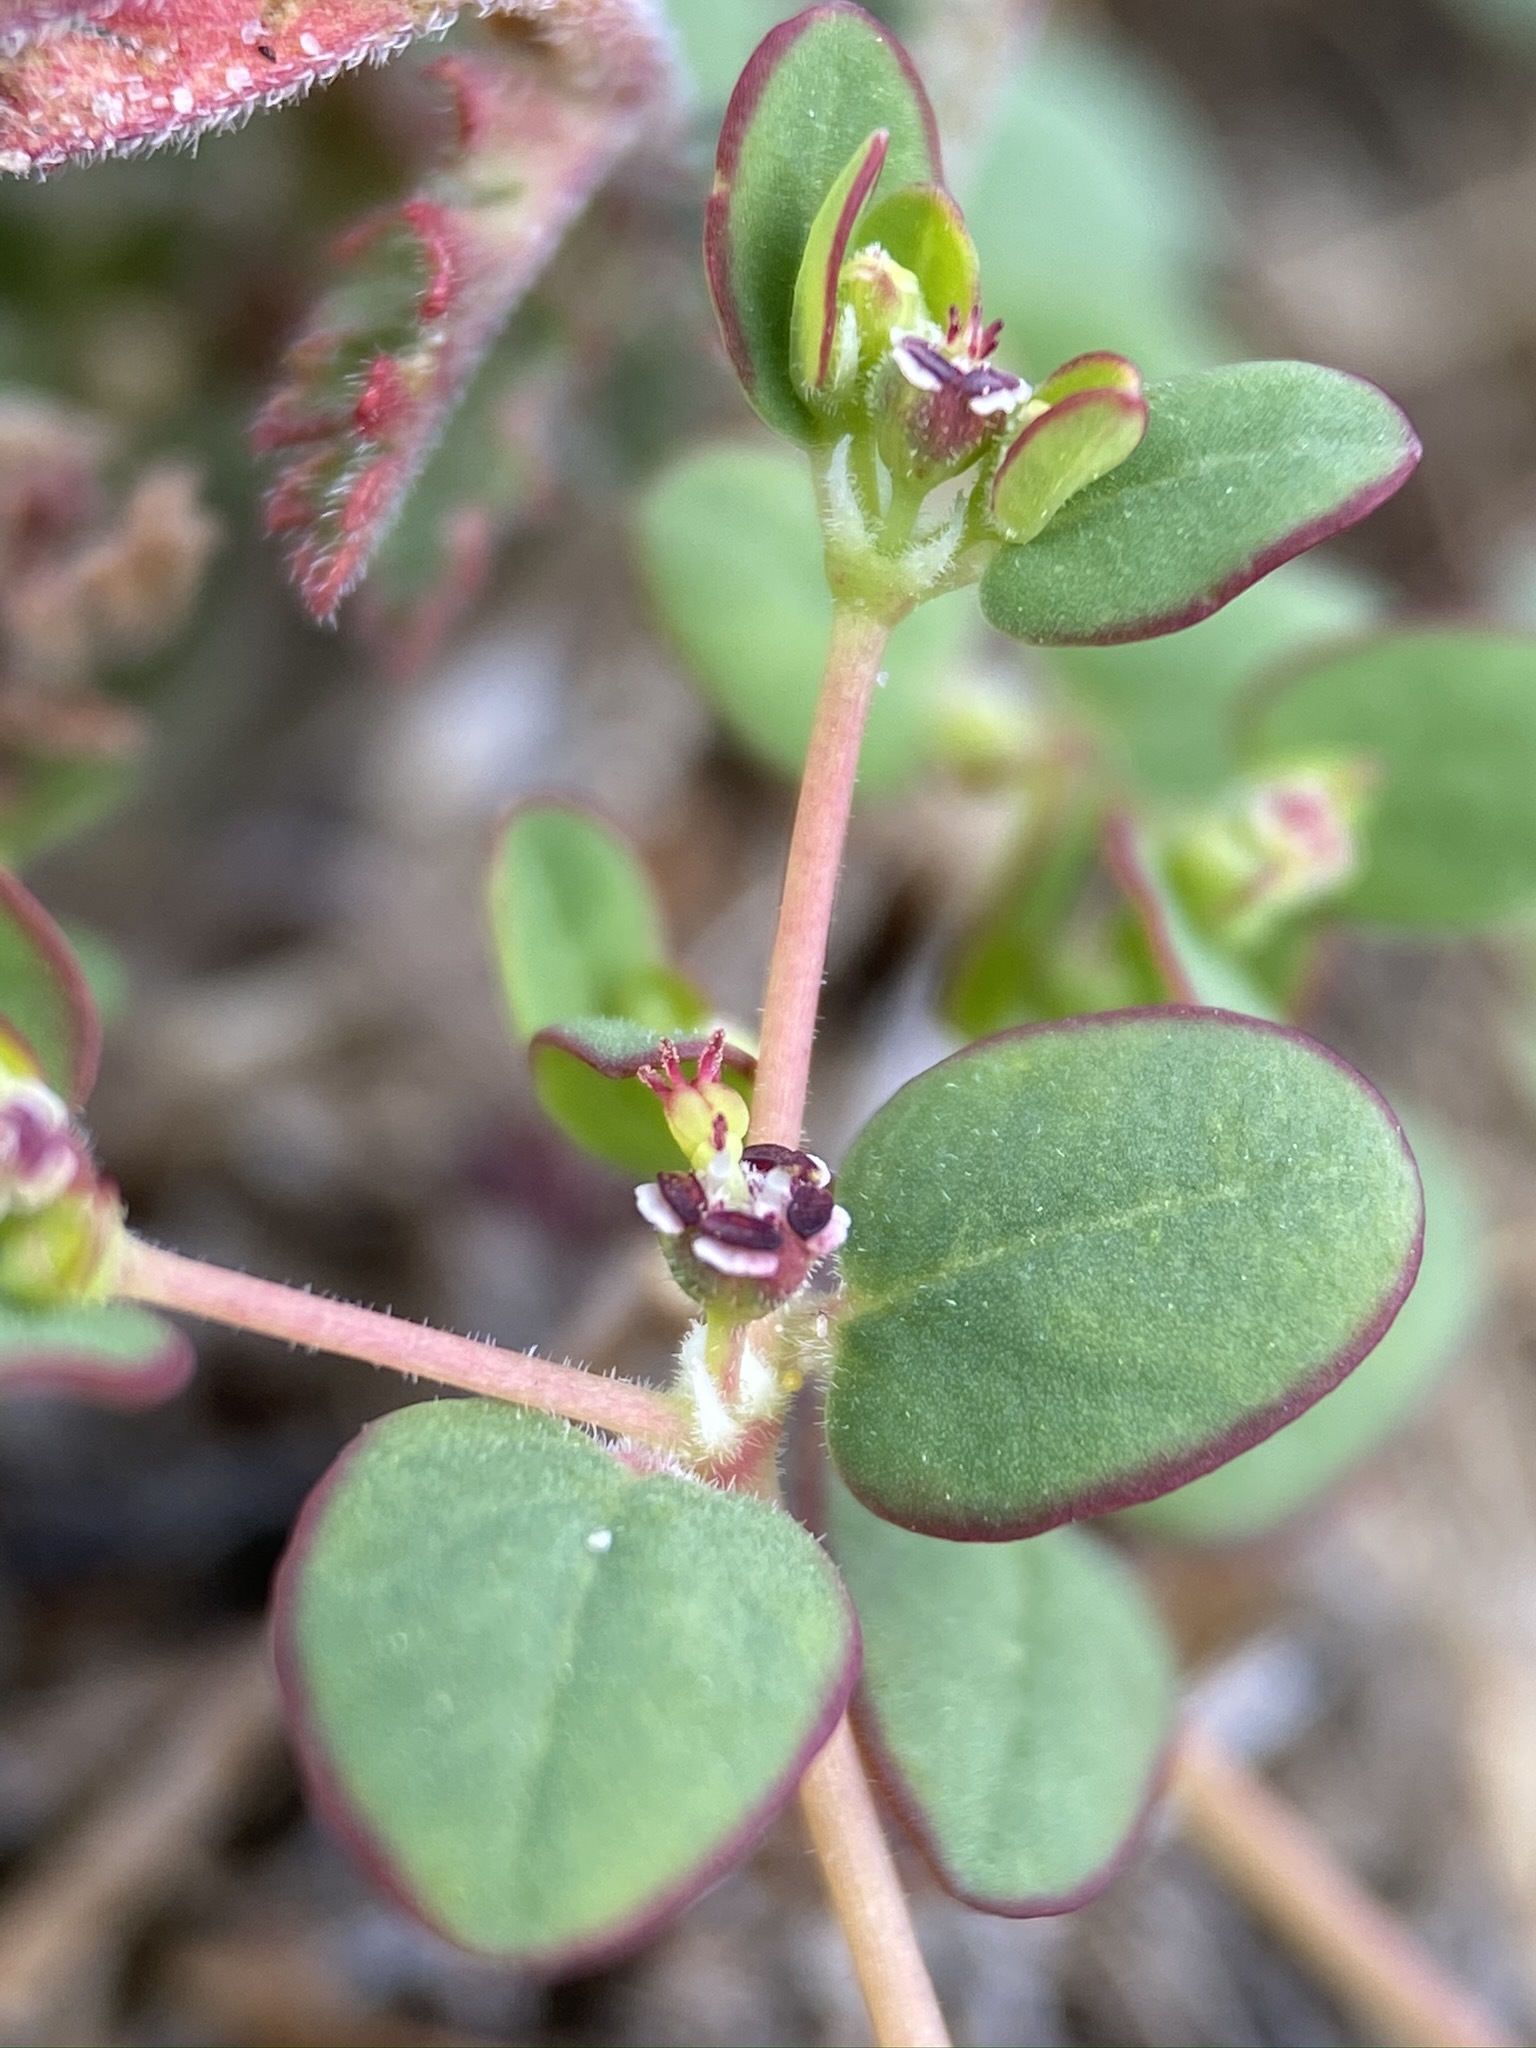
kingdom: Plantae
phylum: Tracheophyta
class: Magnoliopsida
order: Malpighiales
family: Euphorbiaceae
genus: Euphorbia
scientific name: Euphorbia polycarpa
